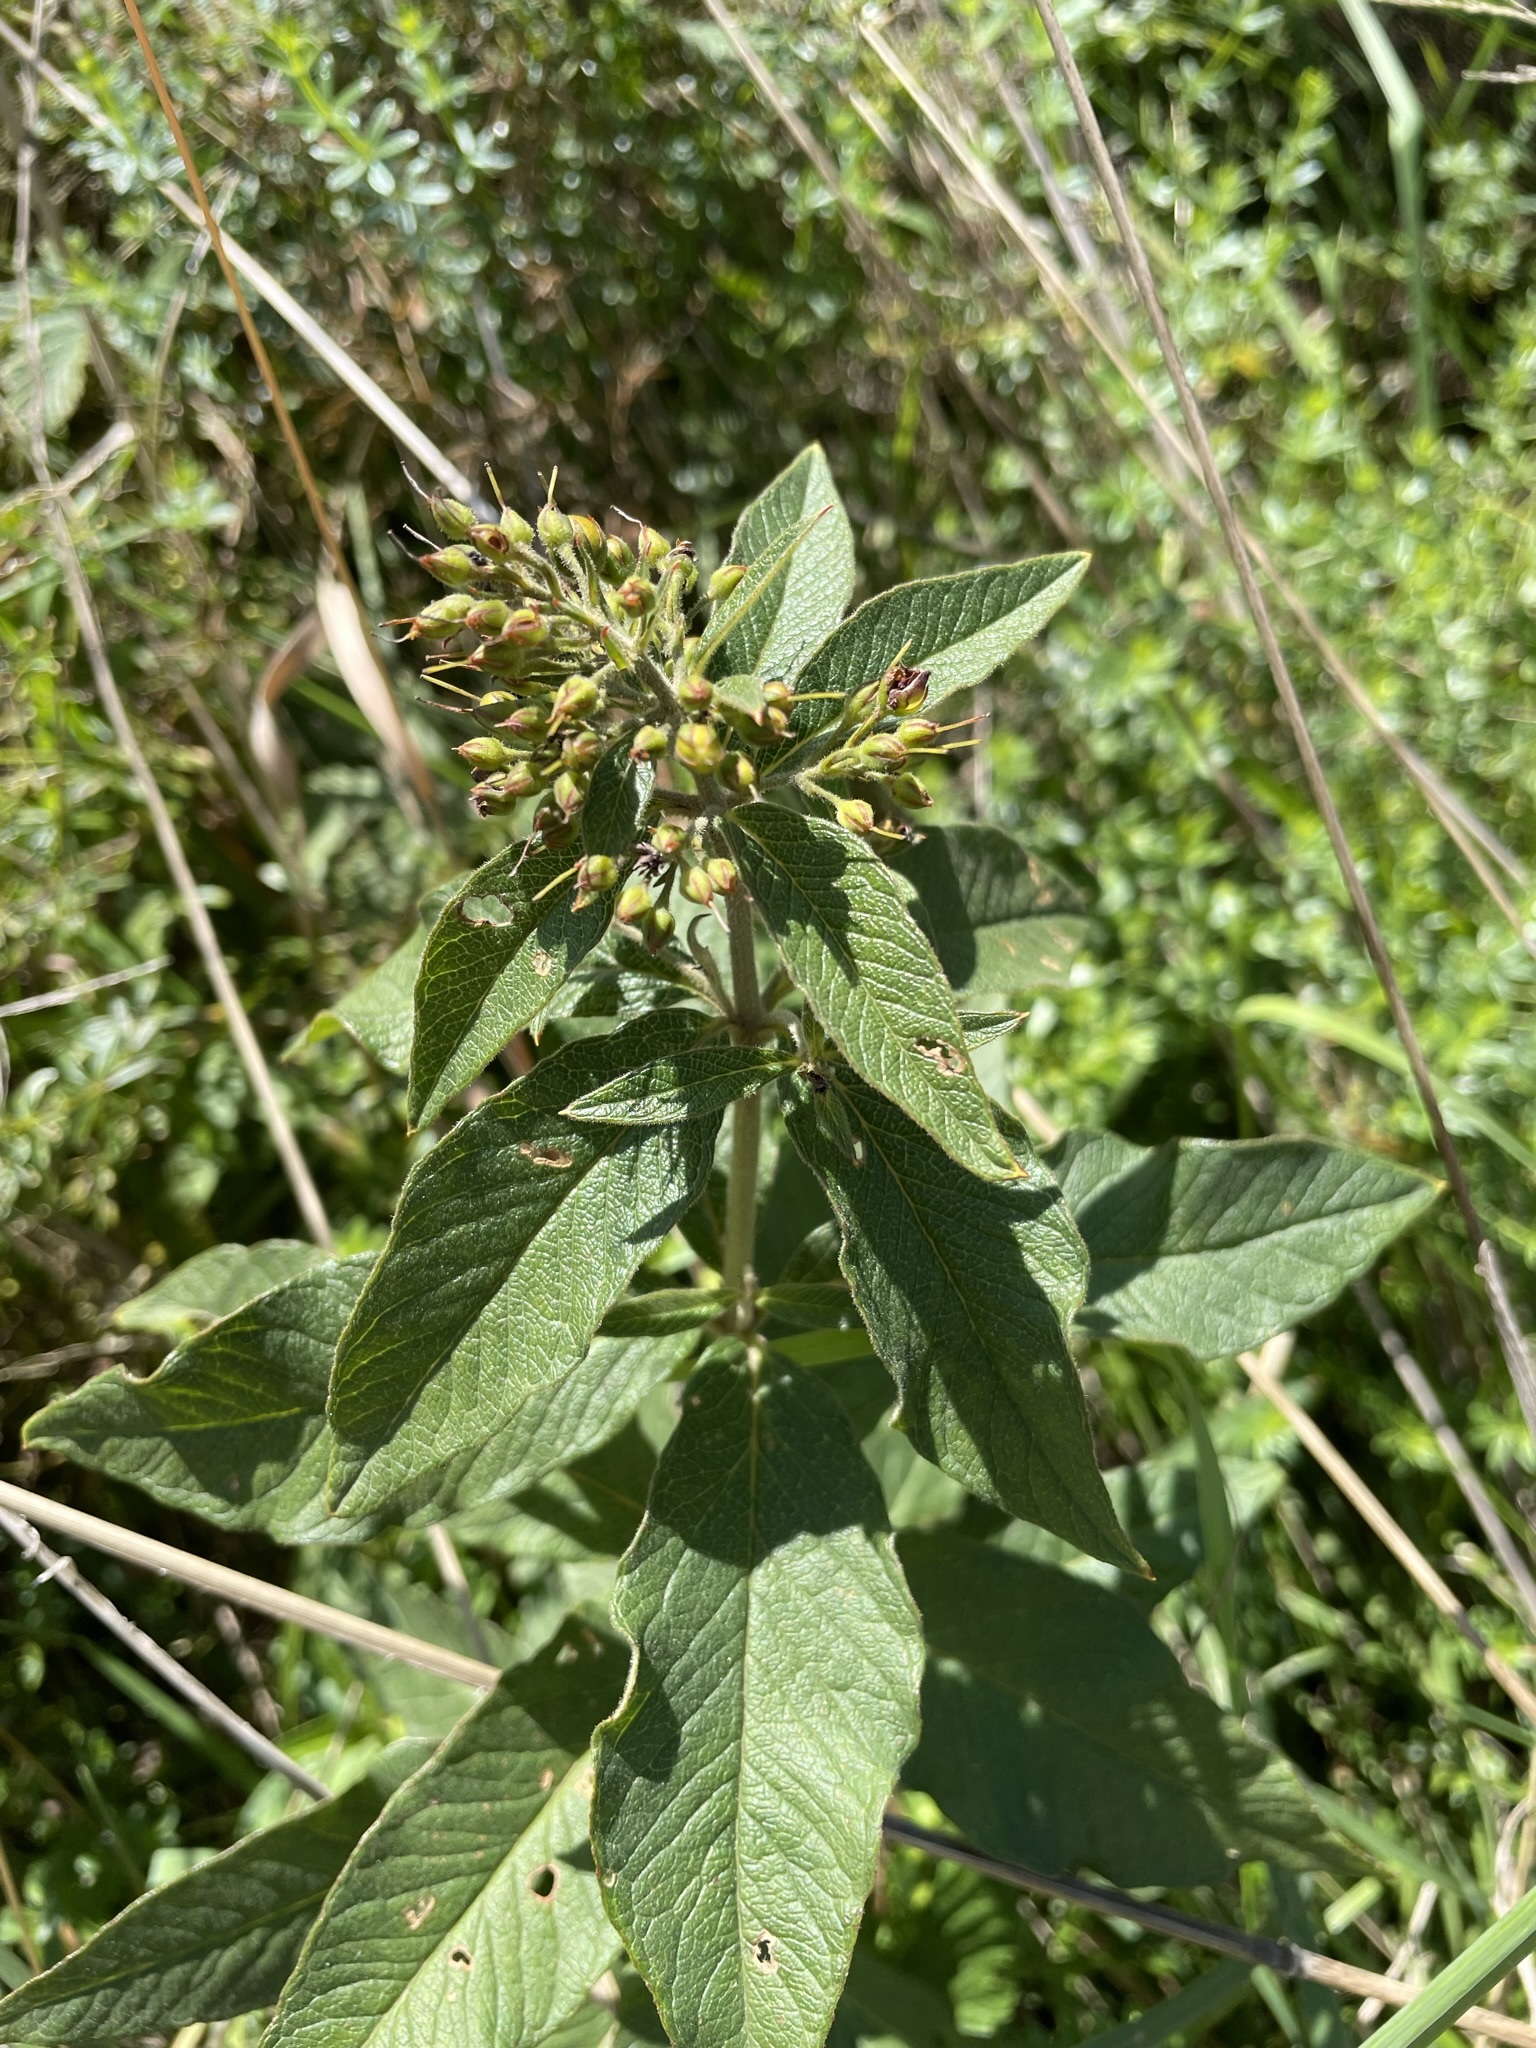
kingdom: Plantae
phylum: Tracheophyta
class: Magnoliopsida
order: Ericales
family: Primulaceae
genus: Lysimachia
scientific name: Lysimachia vulgaris
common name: Yellow loosestrife
